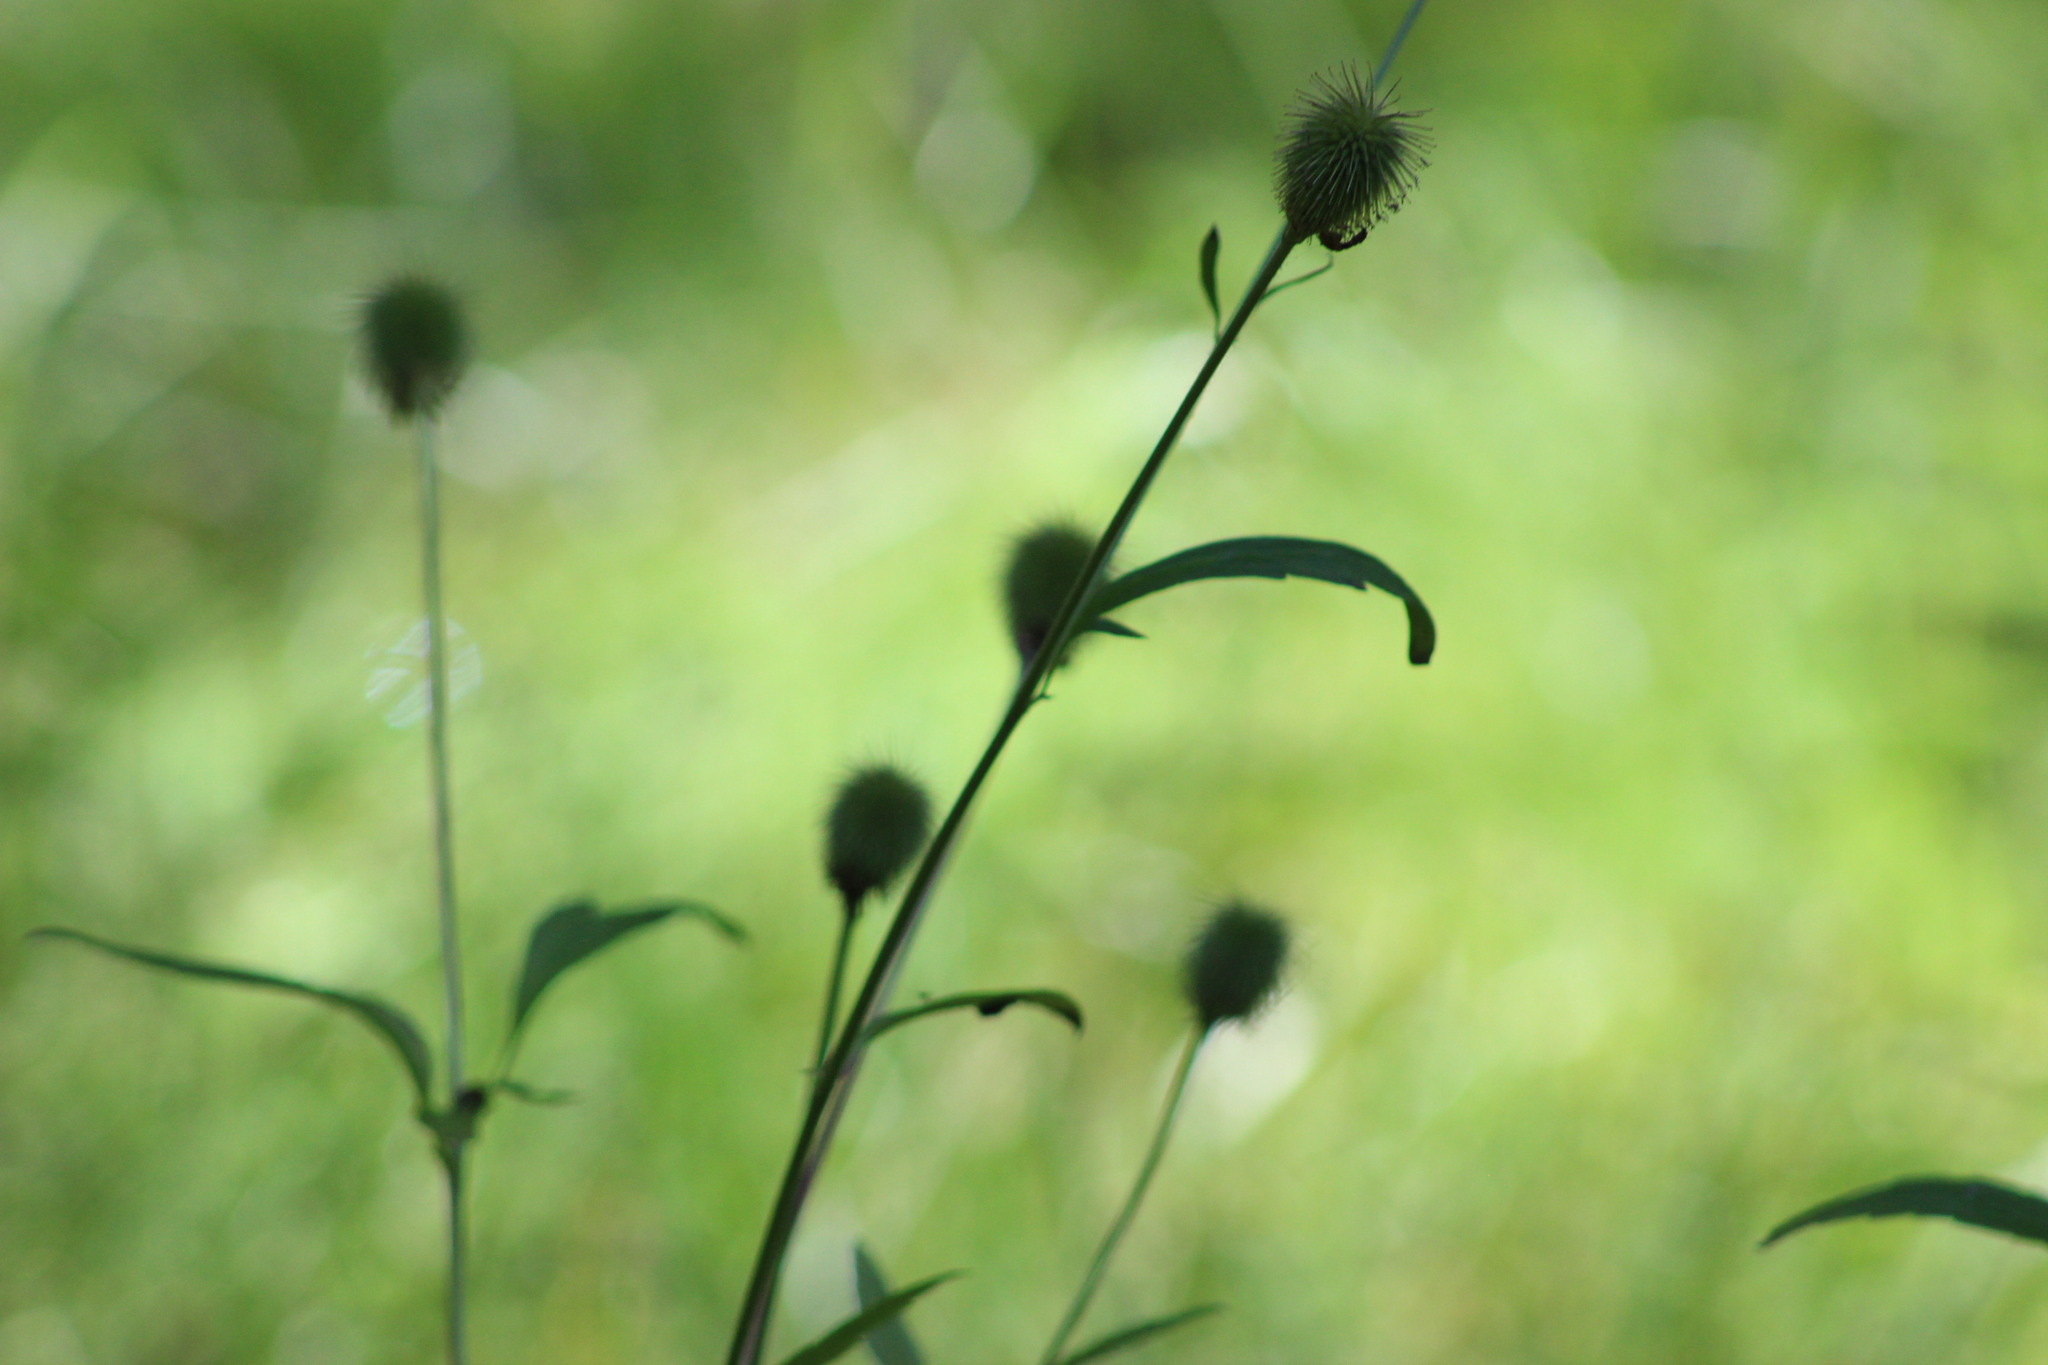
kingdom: Plantae
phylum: Tracheophyta
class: Magnoliopsida
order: Rosales
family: Rosaceae
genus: Geum
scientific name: Geum aleppicum
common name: Yellow avens
